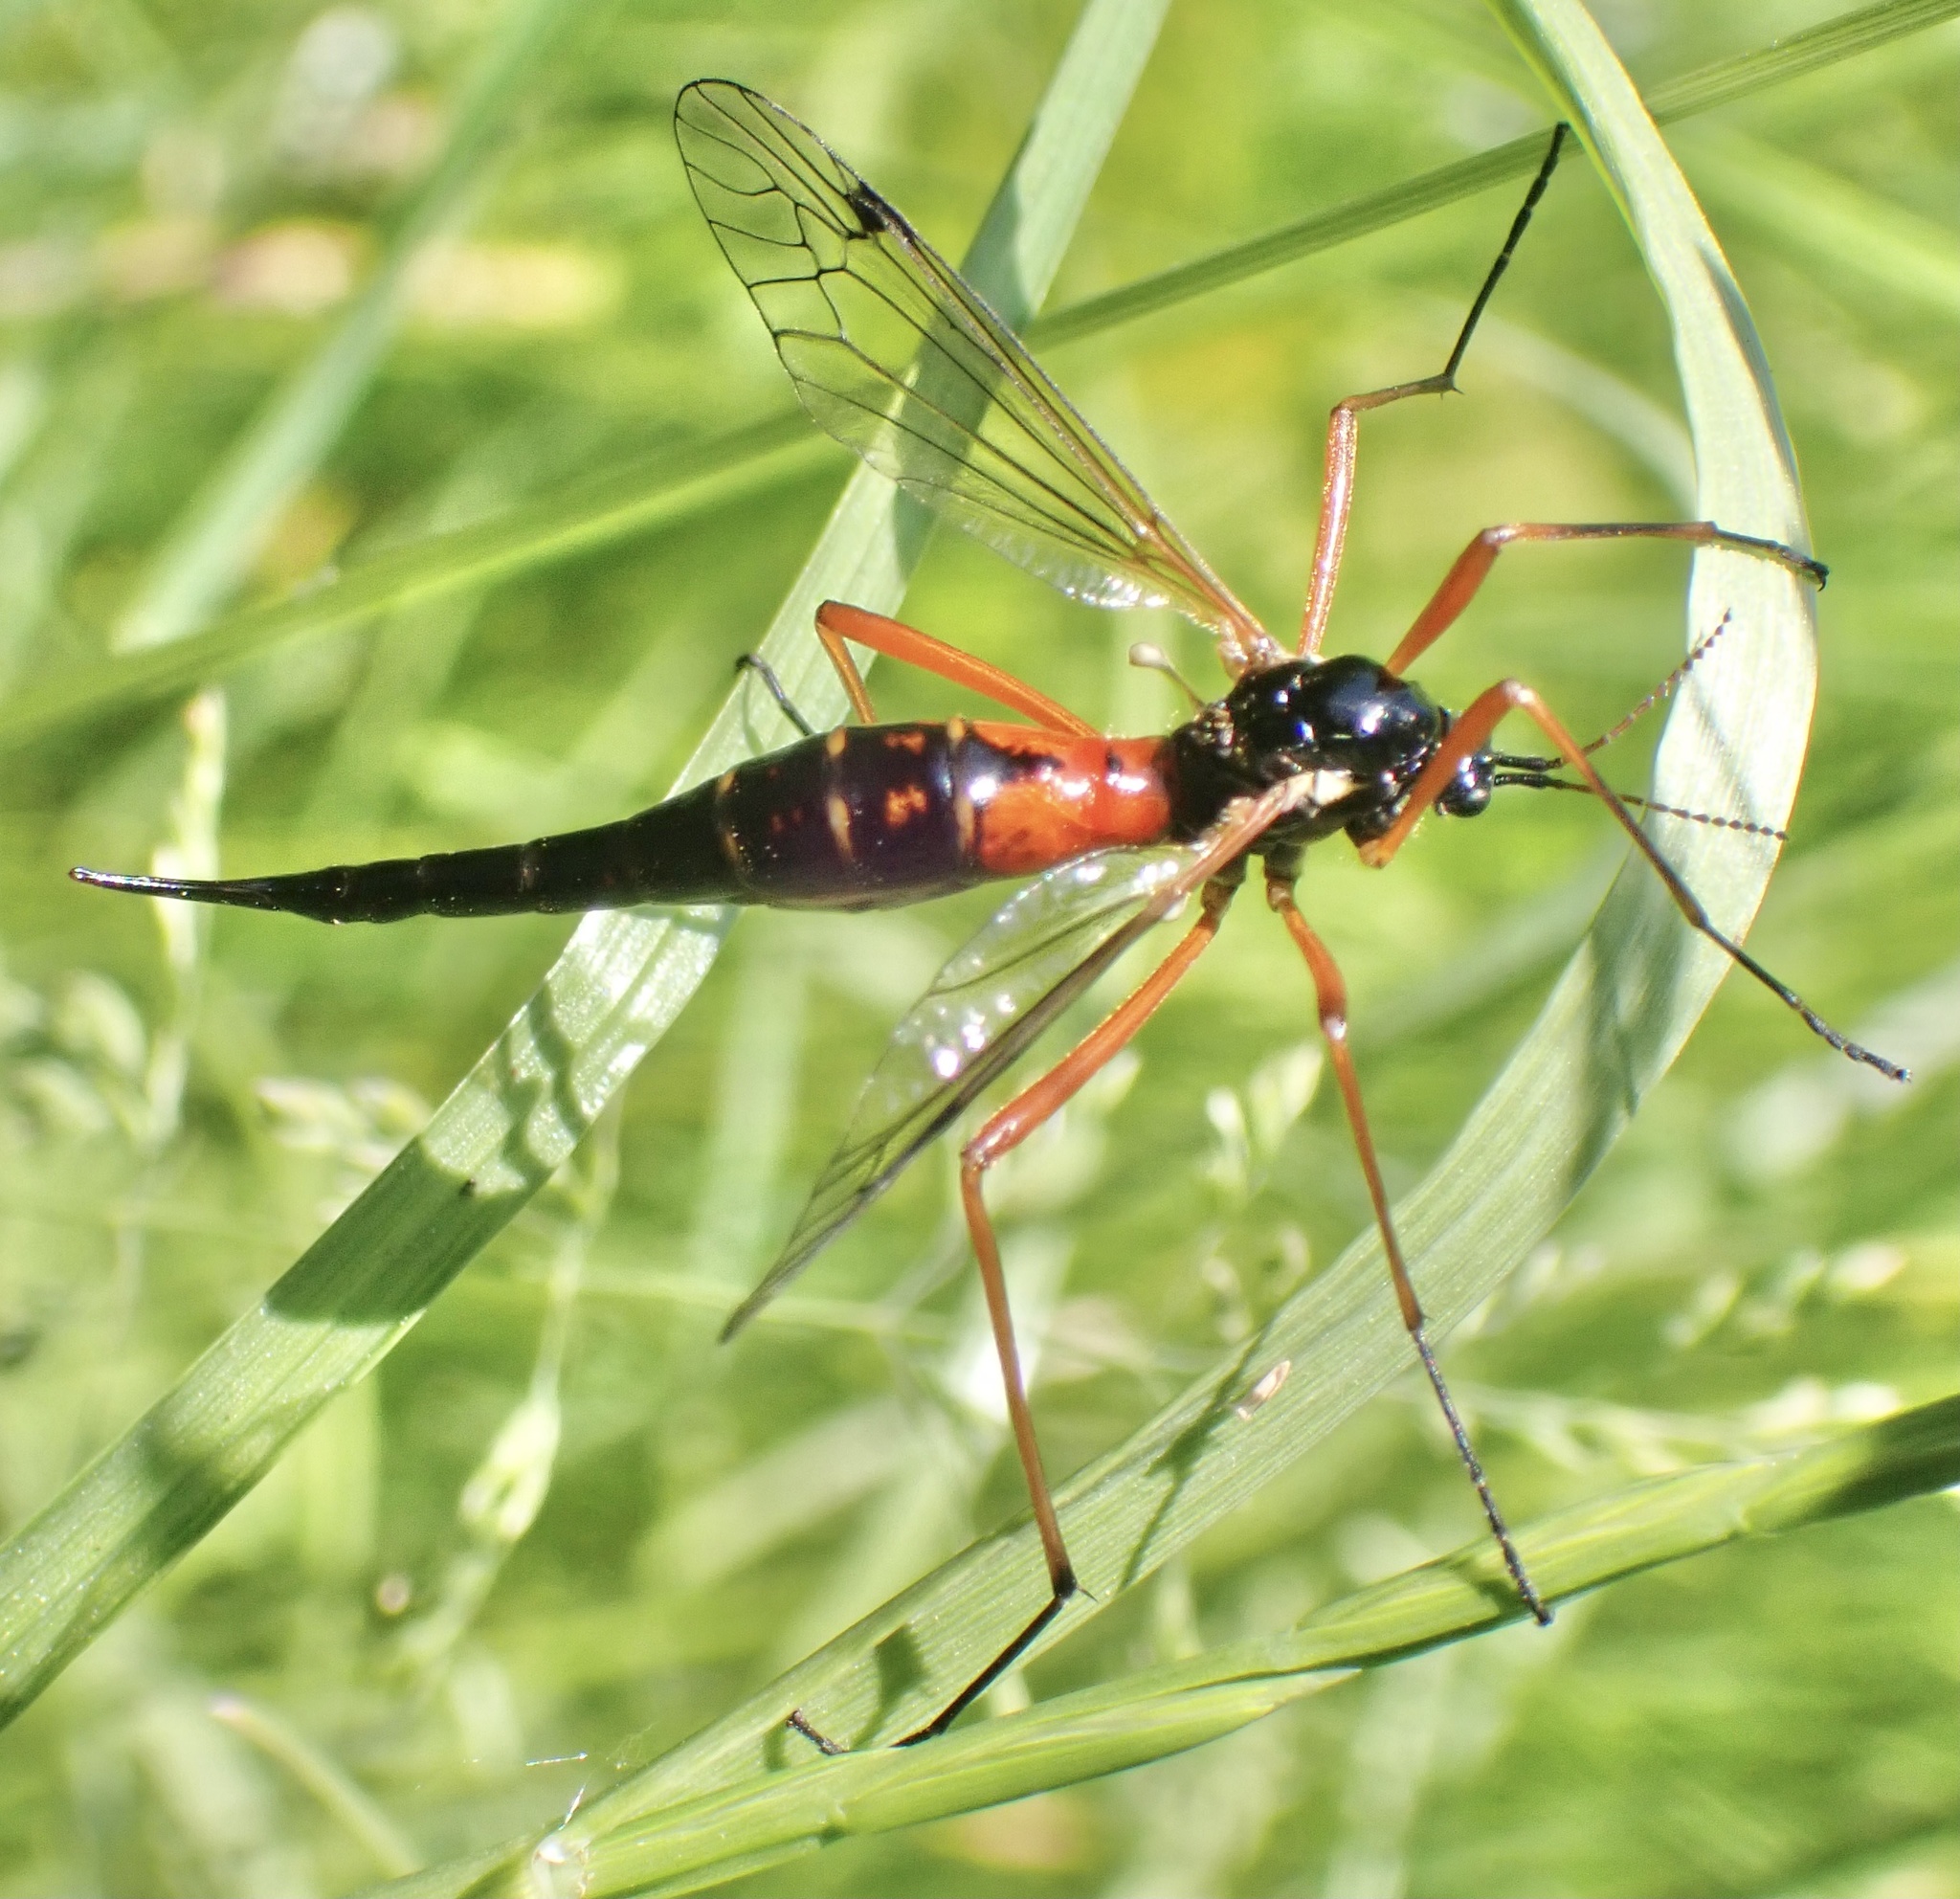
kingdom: Animalia
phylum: Arthropoda
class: Insecta
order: Diptera
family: Tipulidae
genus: Tanyptera
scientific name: Tanyptera atrata
